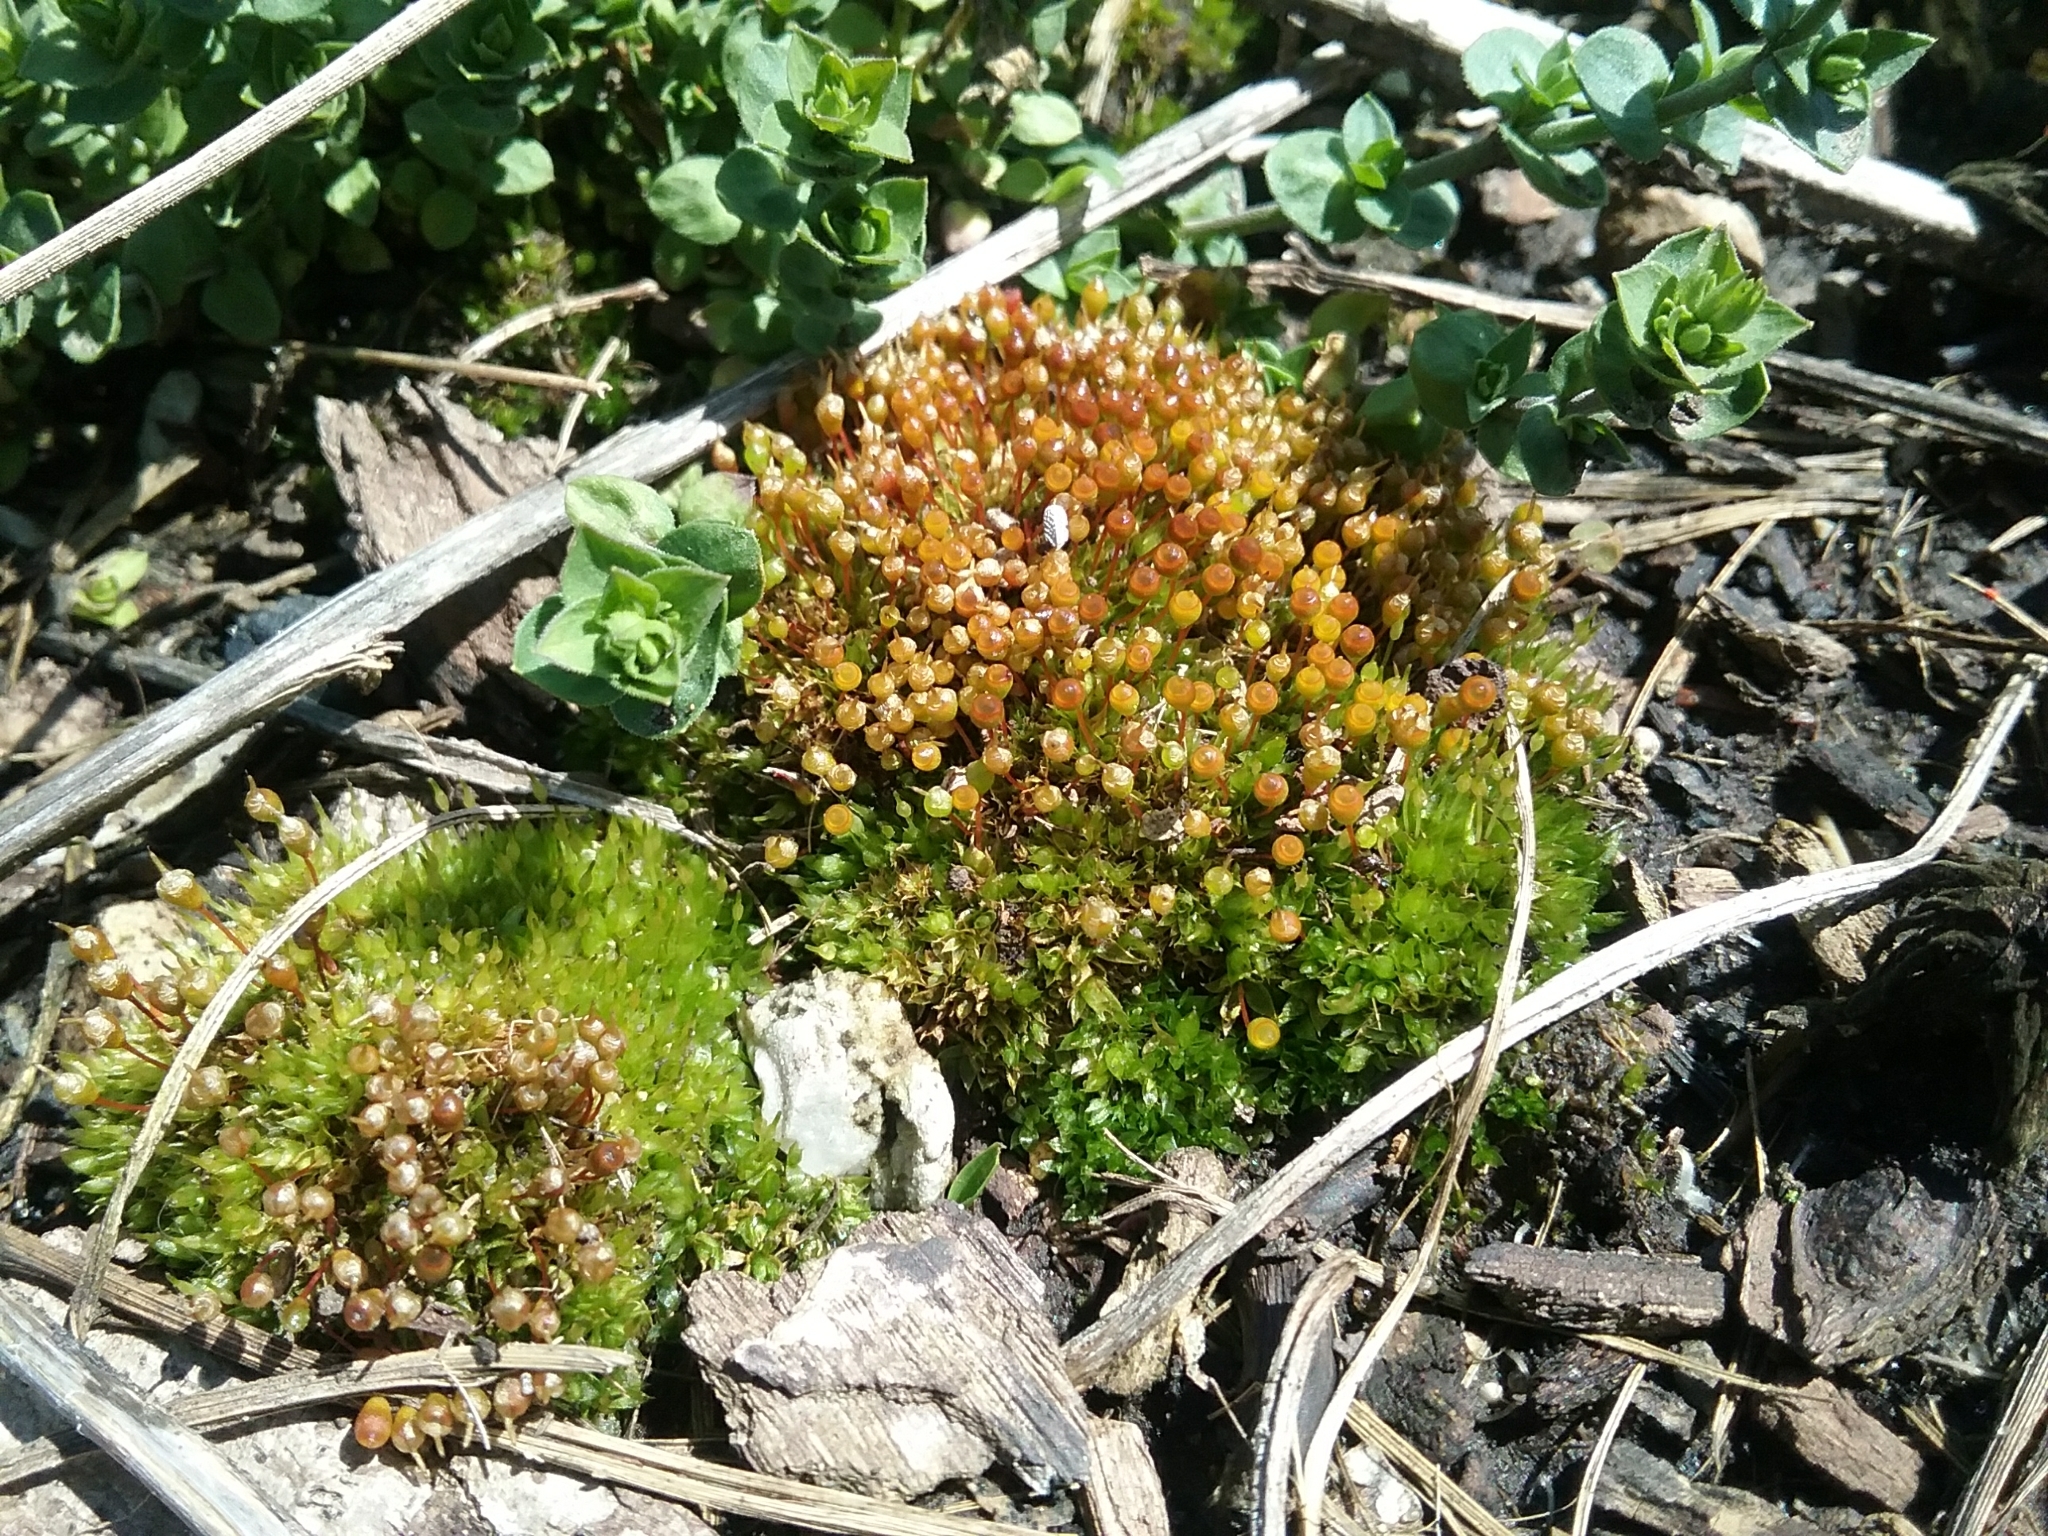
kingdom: Plantae
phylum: Bryophyta
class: Bryopsida
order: Funariales
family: Funariaceae
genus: Physcomitrium
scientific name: Physcomitrium pyriforme
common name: Common bladder-moss
